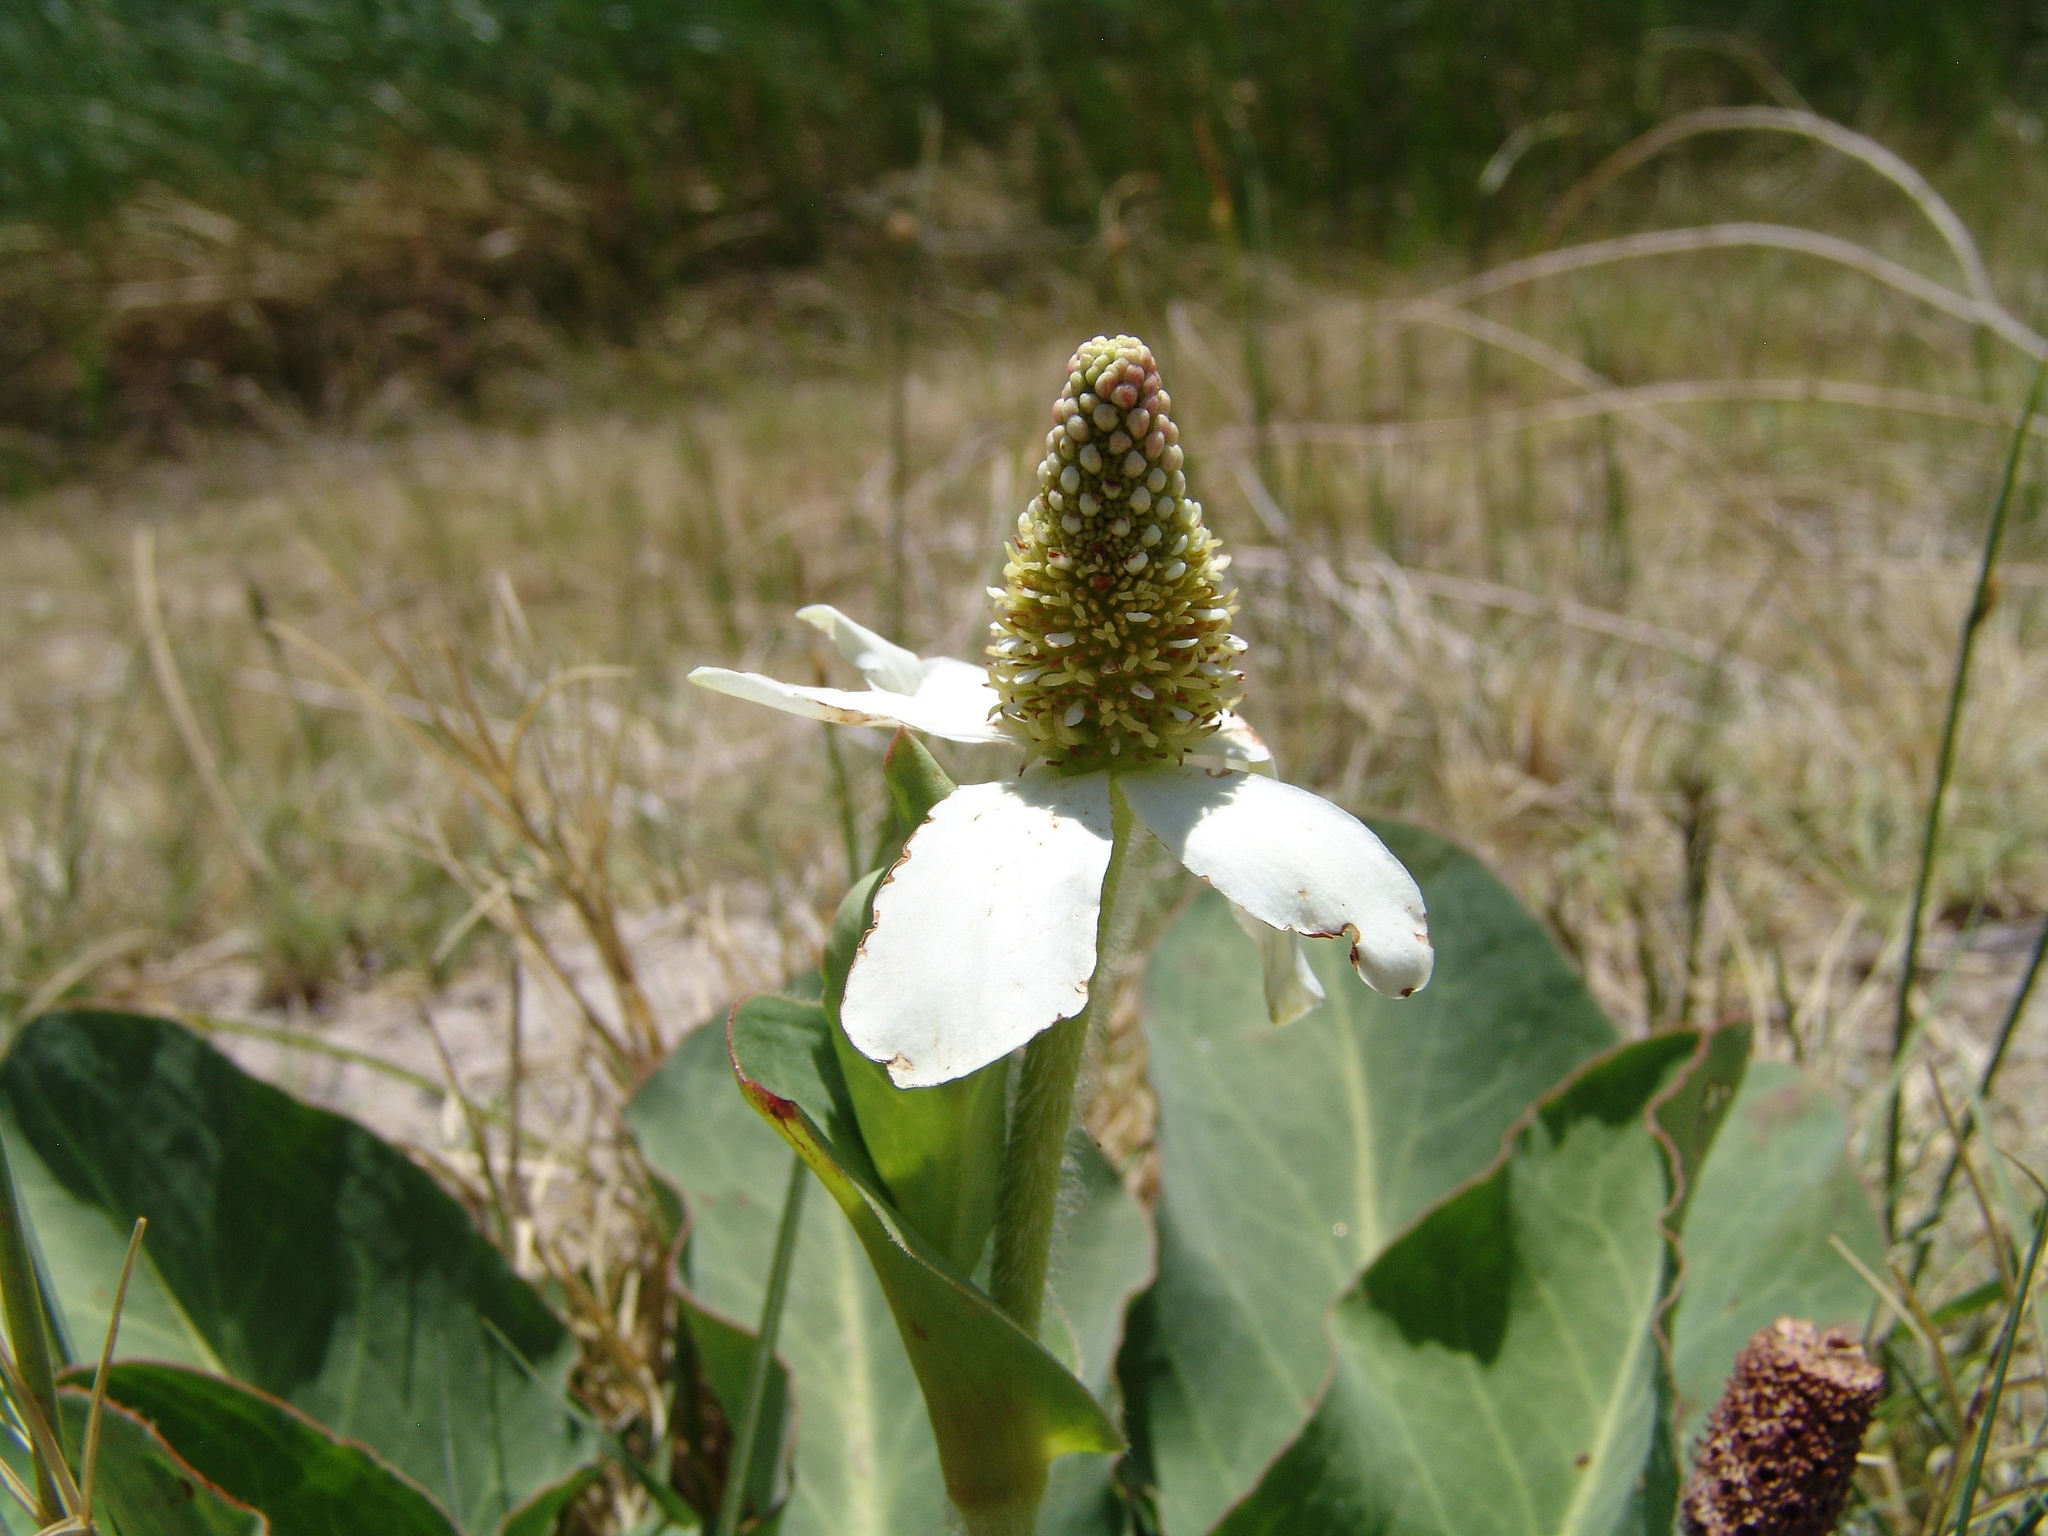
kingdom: Plantae
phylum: Tracheophyta
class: Magnoliopsida
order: Piperales
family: Saururaceae
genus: Anemopsis
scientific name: Anemopsis californica
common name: Apache-beads
